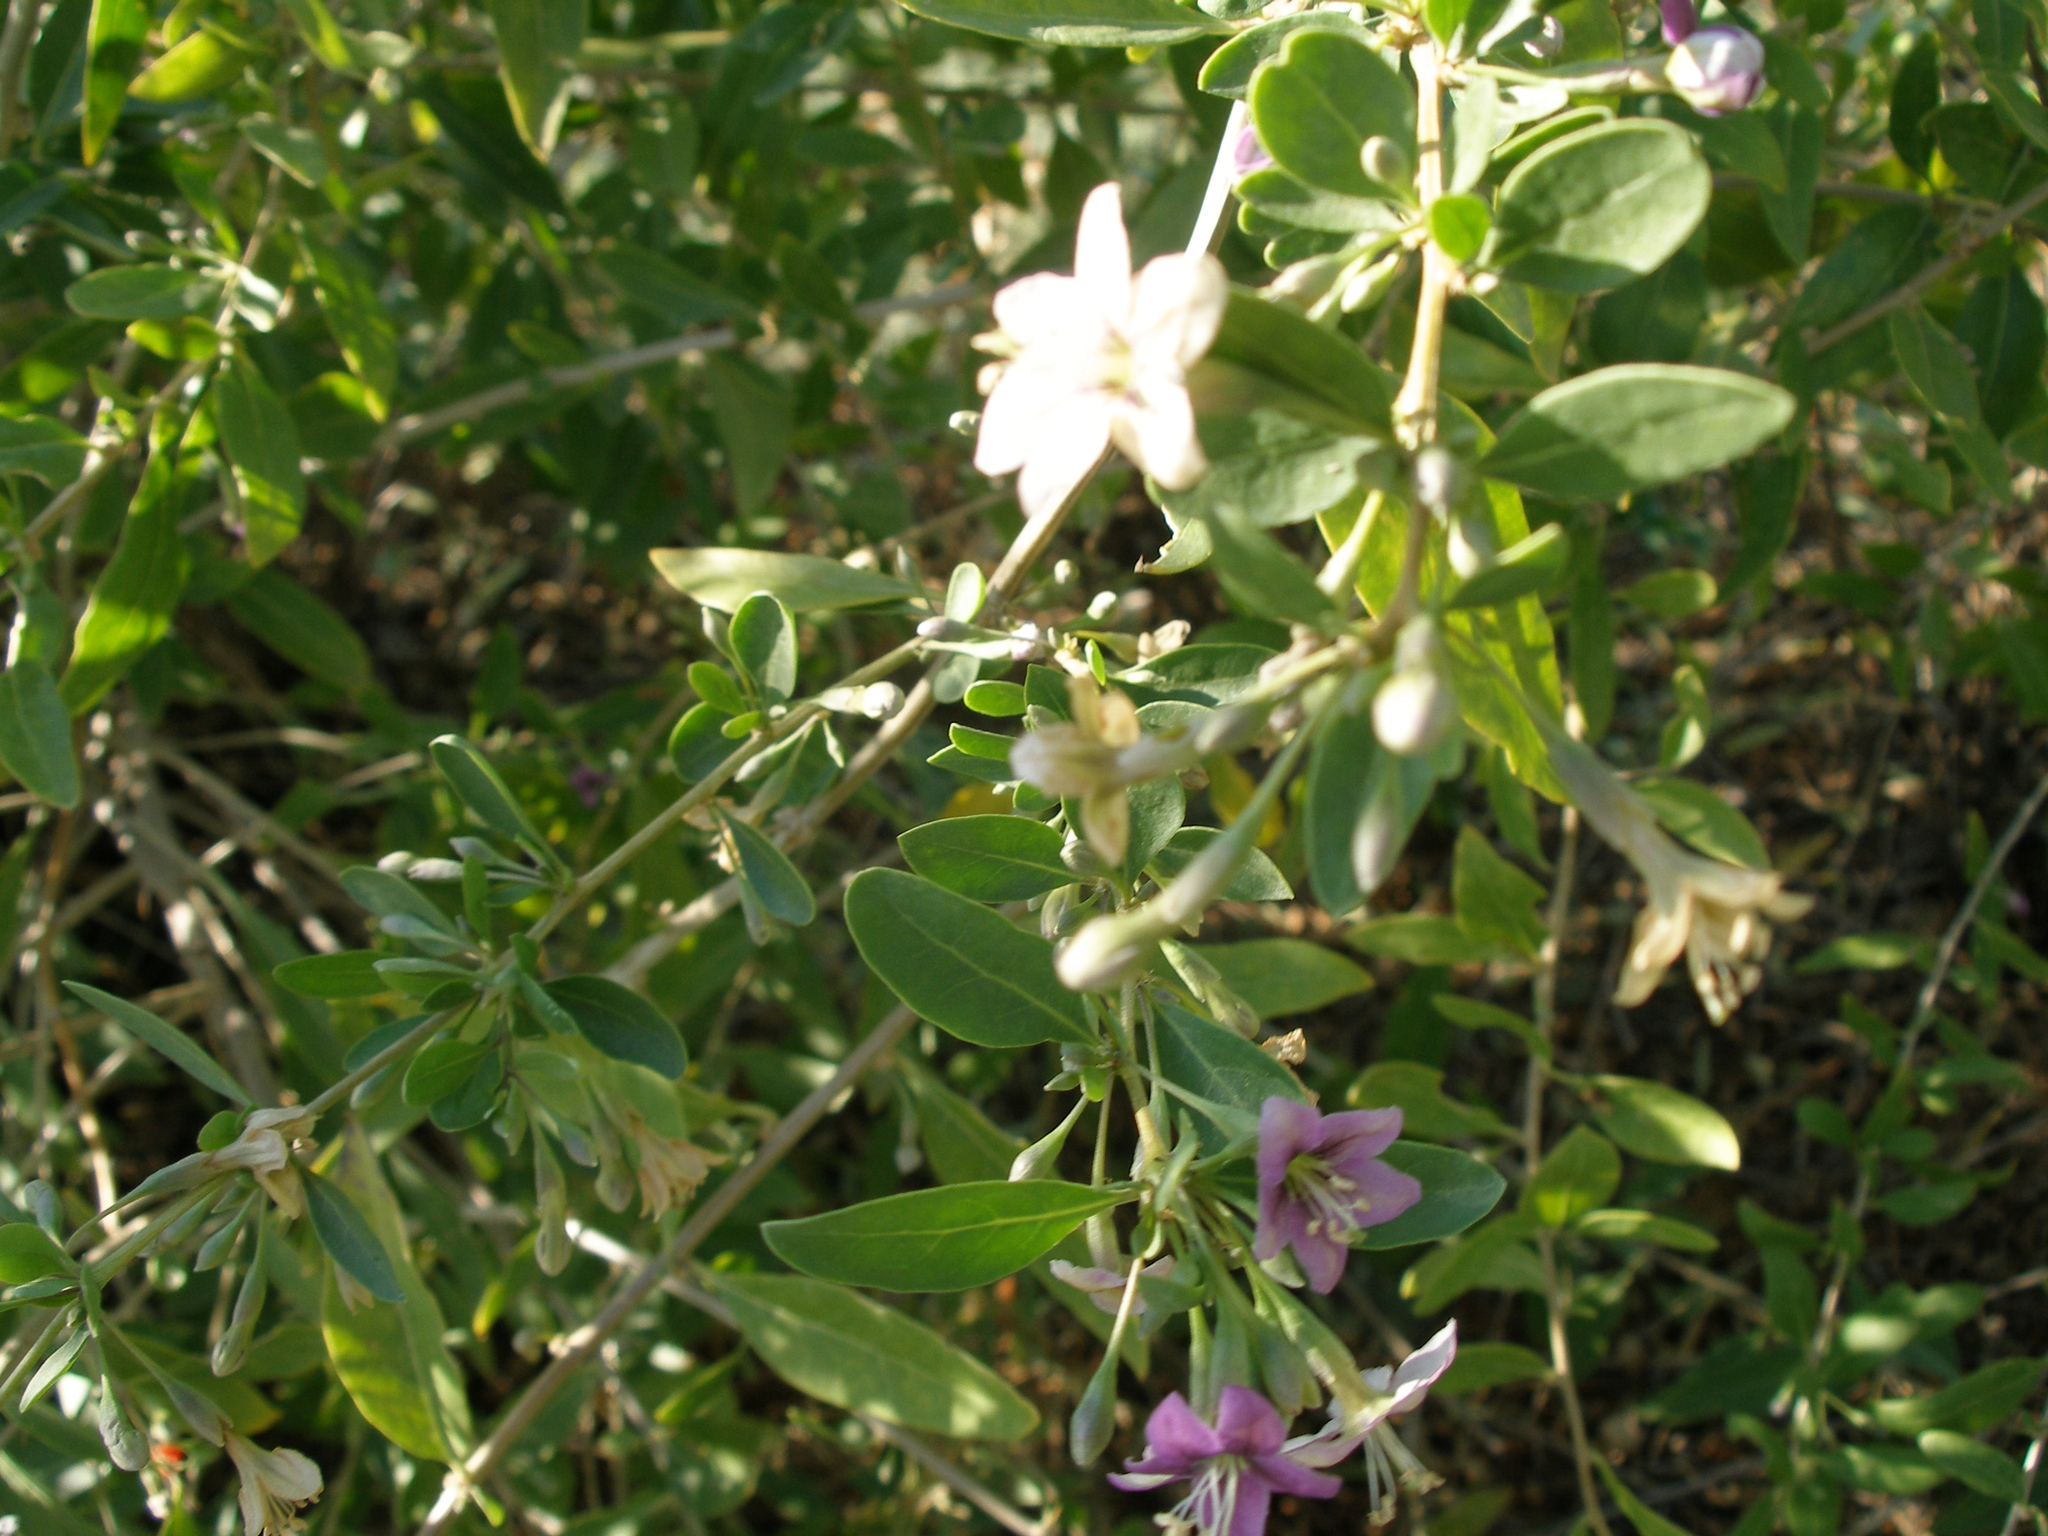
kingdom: Plantae
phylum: Tracheophyta
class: Magnoliopsida
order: Solanales
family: Solanaceae
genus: Lycium
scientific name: Lycium barbarum
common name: Duke of argyll's teaplant
